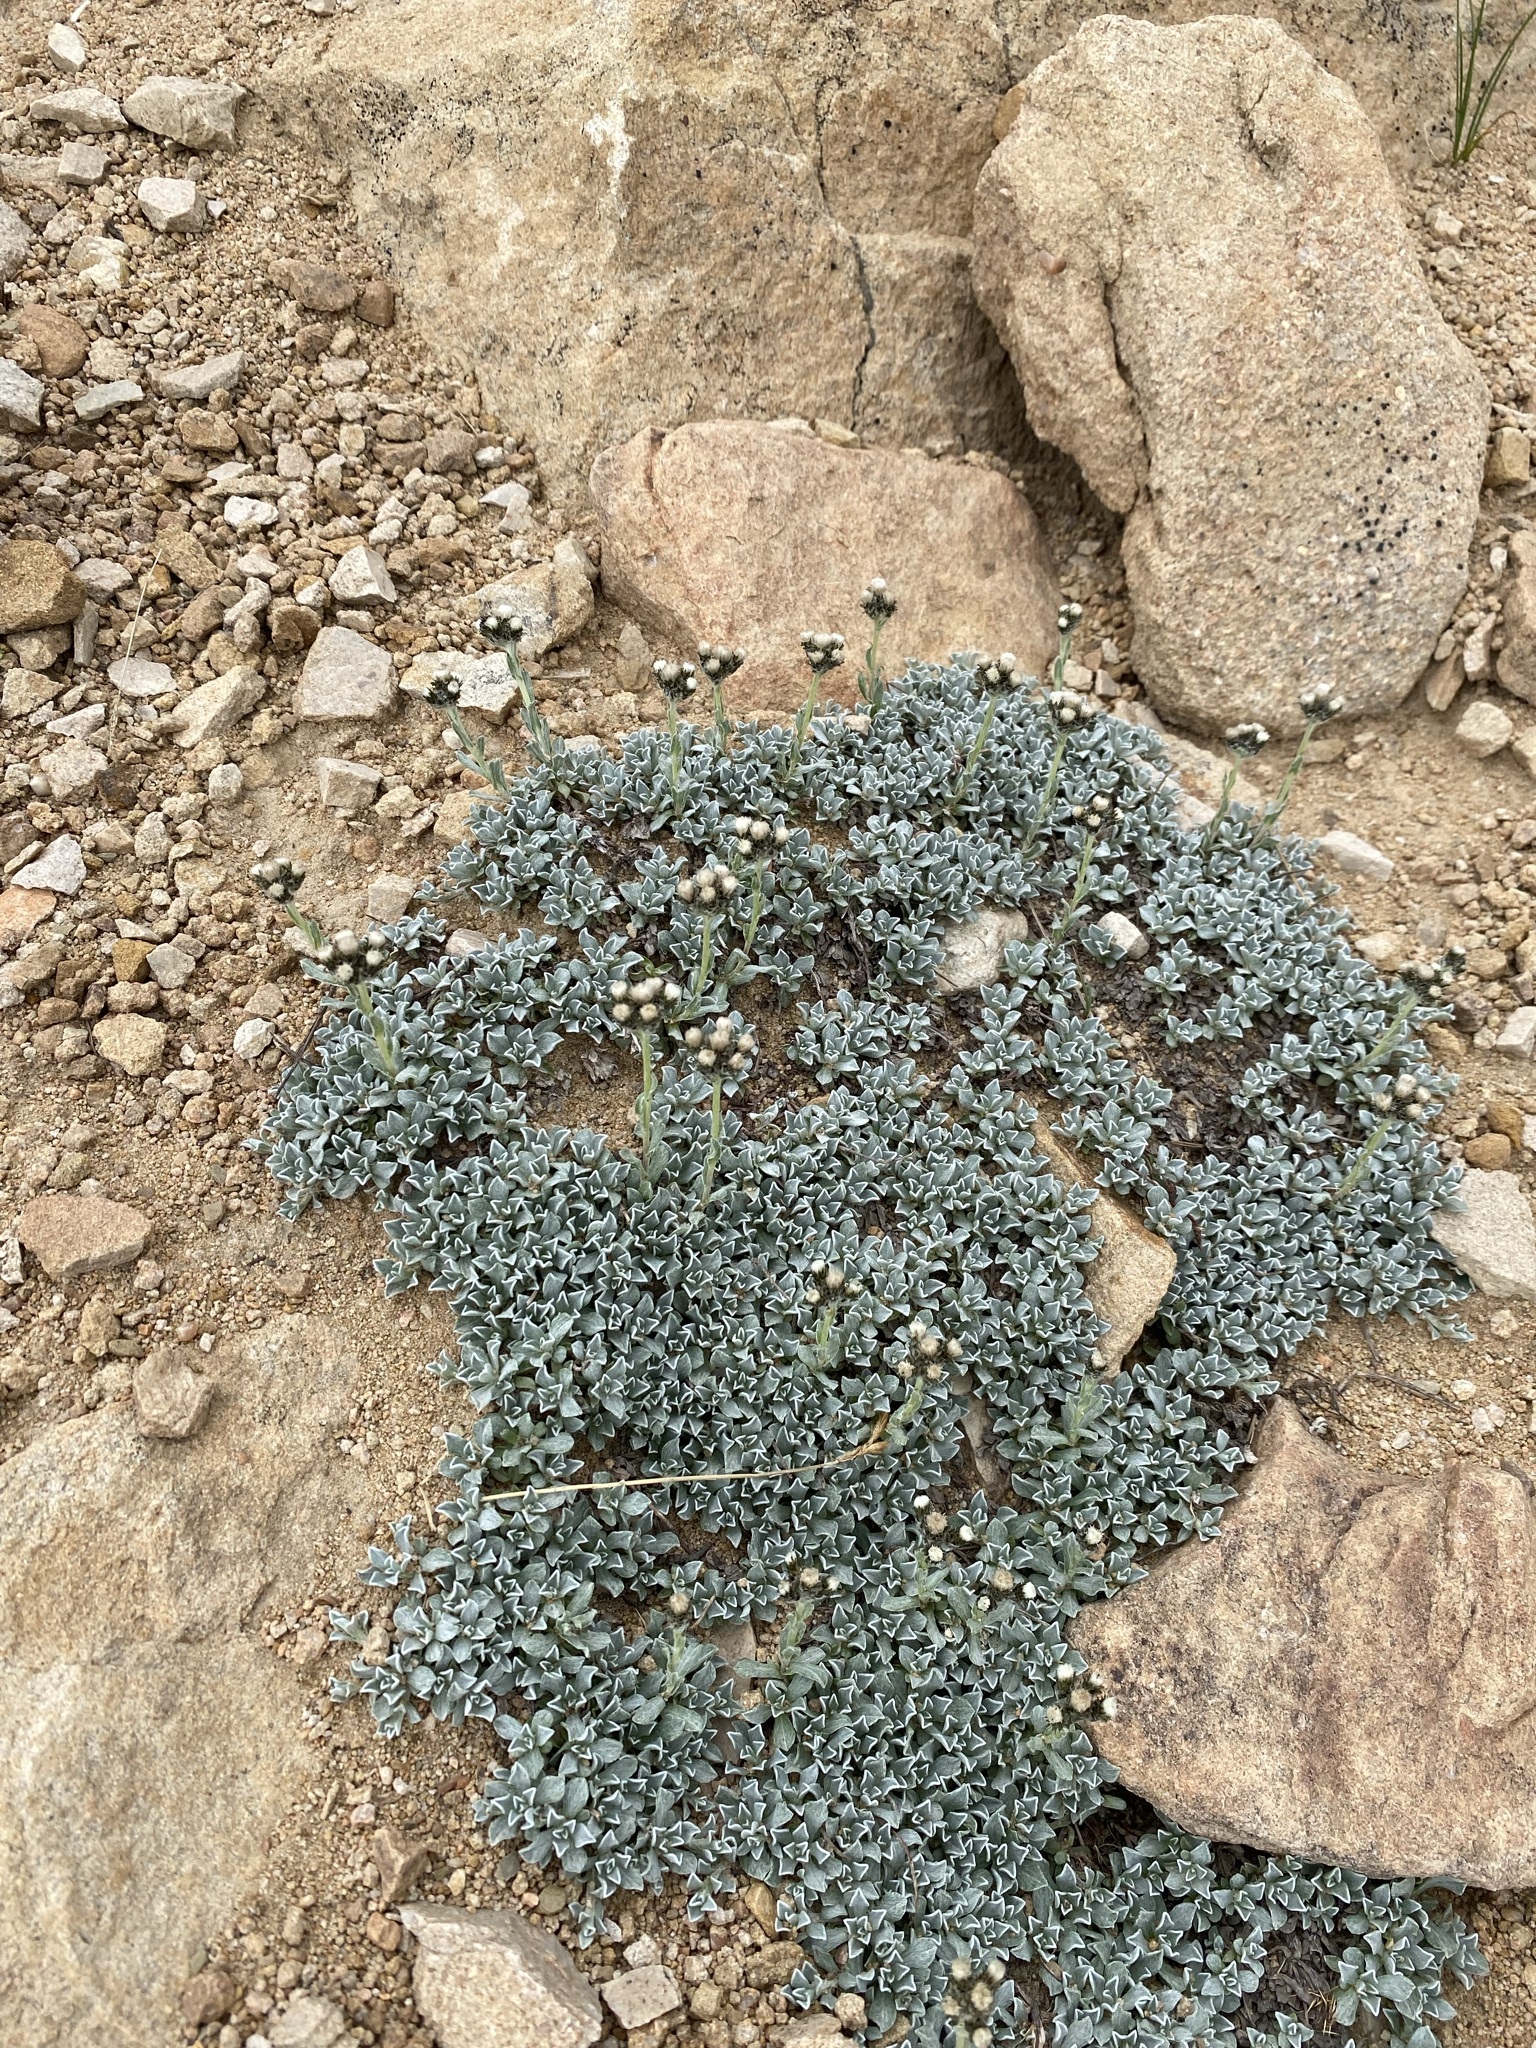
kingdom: Plantae
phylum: Tracheophyta
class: Magnoliopsida
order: Asterales
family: Asteraceae
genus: Antennaria
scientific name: Antennaria media
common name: Rocky mountain pussytoes
